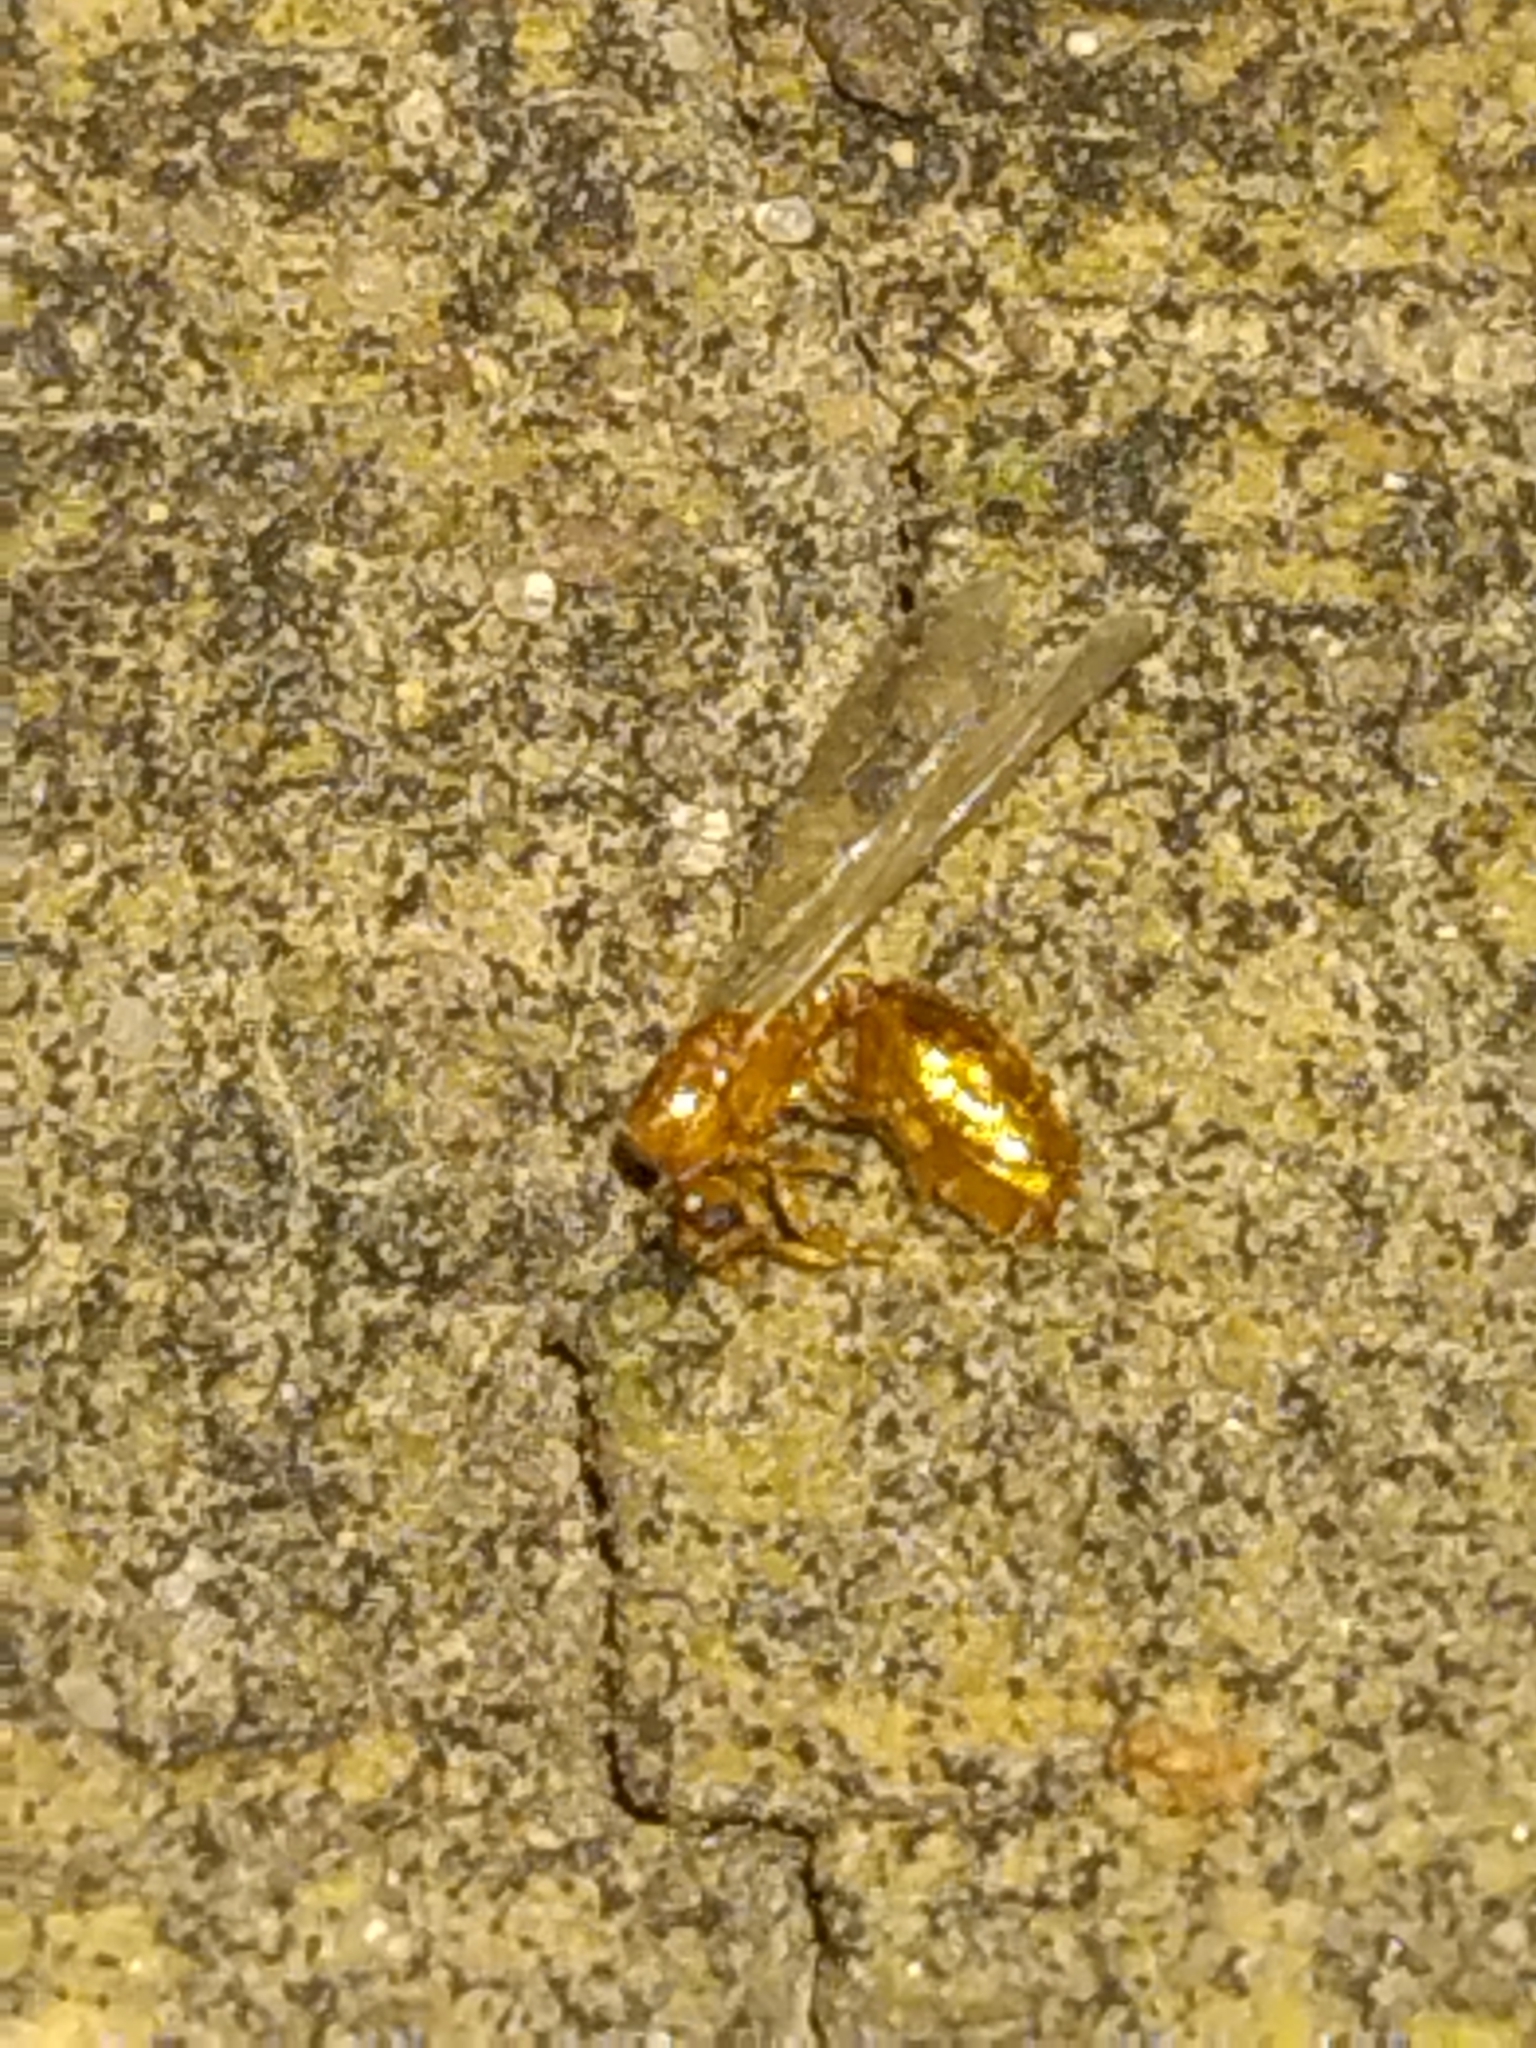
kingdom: Animalia
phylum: Arthropoda
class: Insecta
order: Hymenoptera
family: Formicidae
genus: Solenopsis
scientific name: Solenopsis carolinensis
